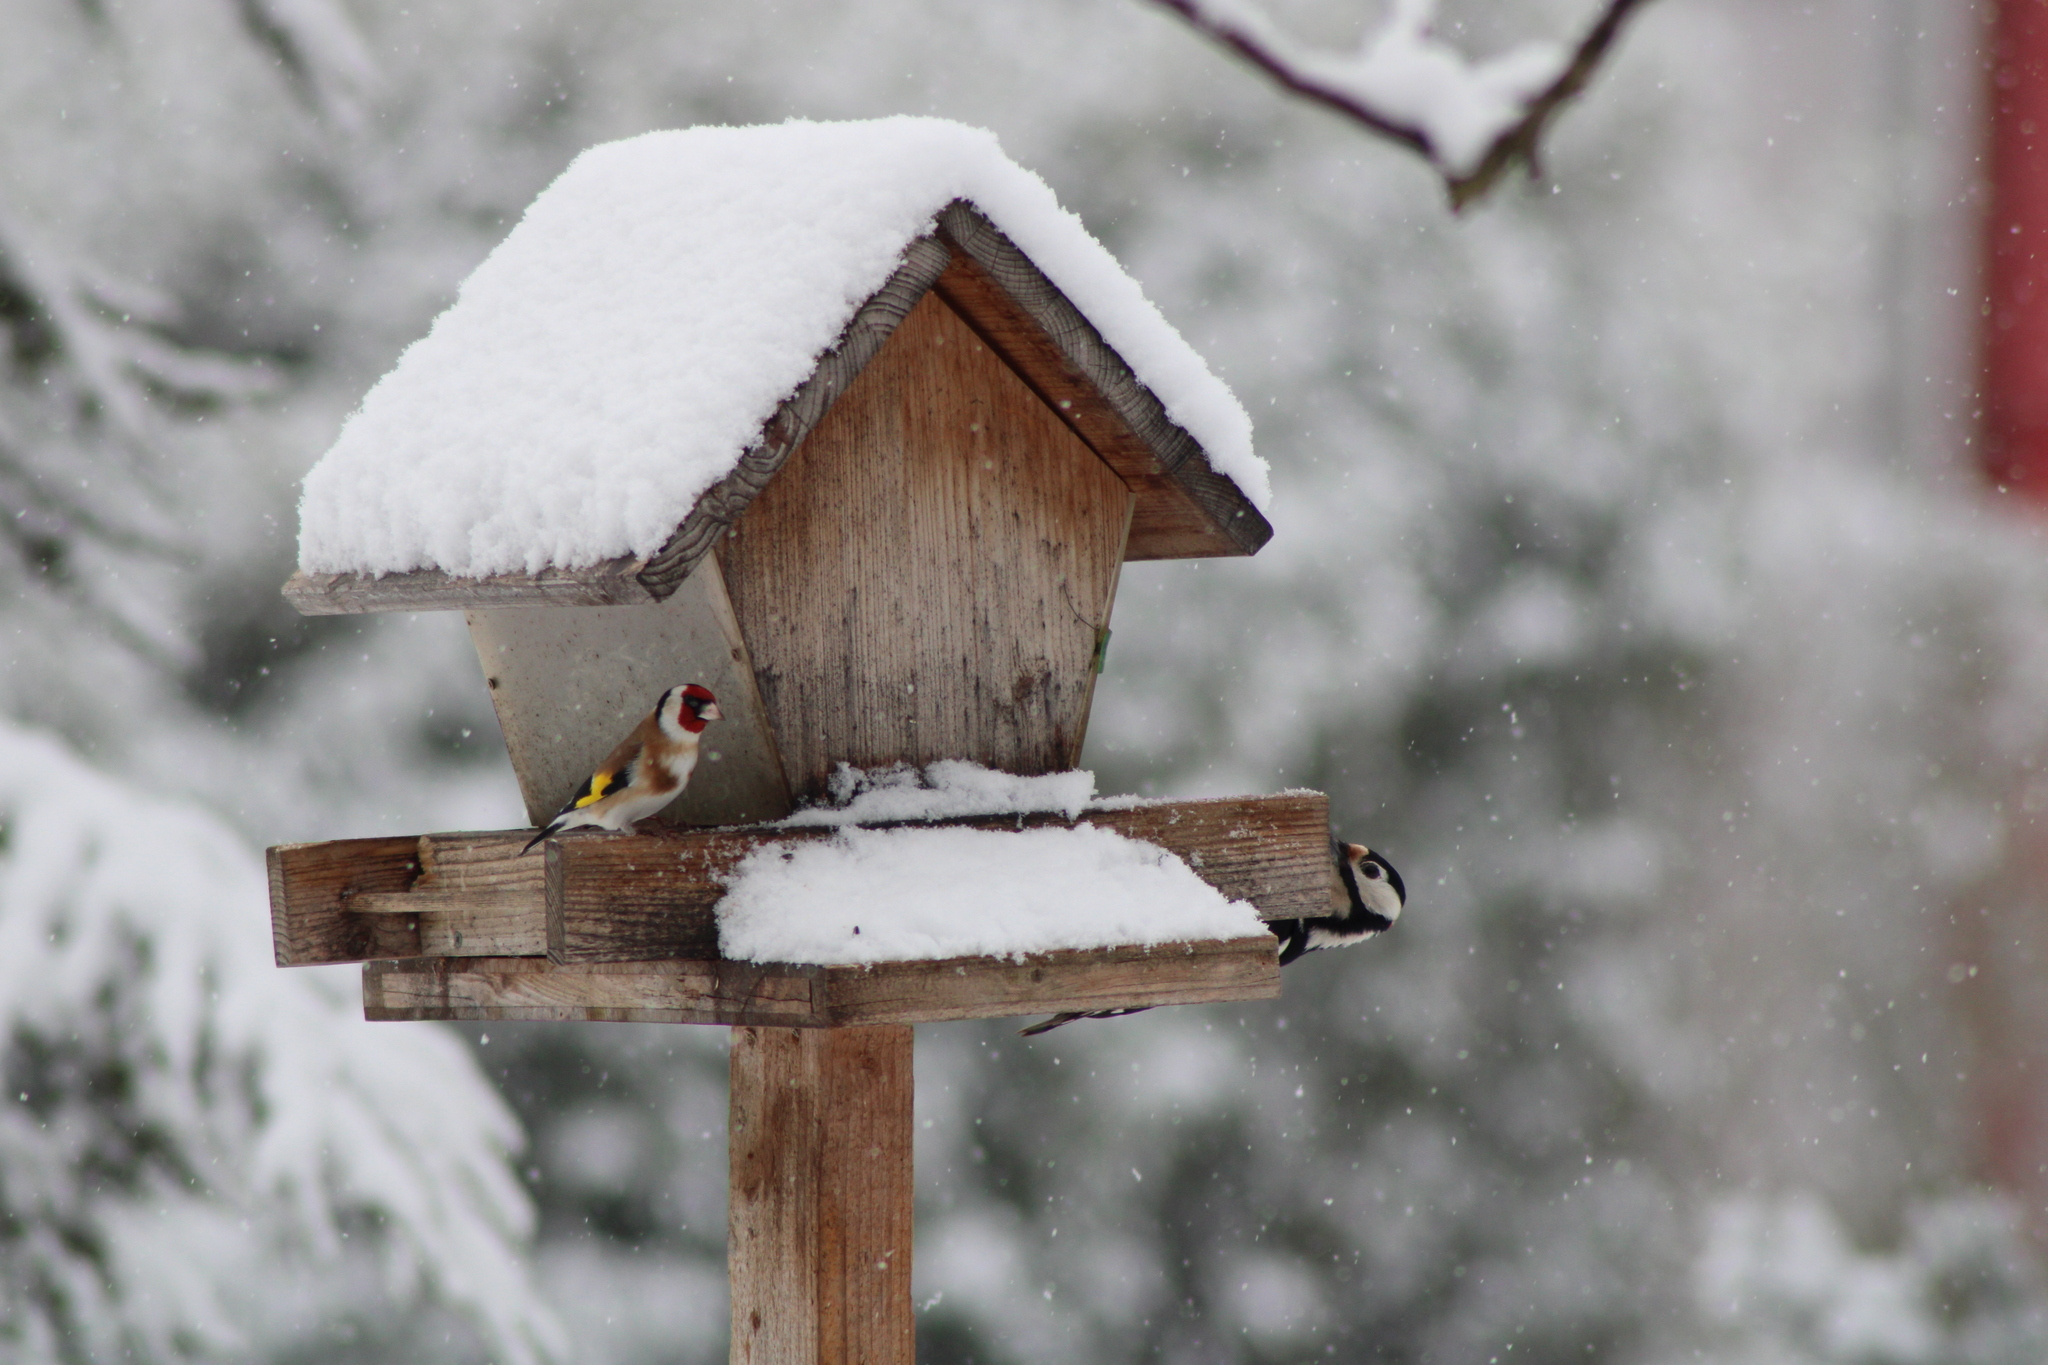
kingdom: Animalia
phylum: Chordata
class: Aves
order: Passeriformes
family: Fringillidae
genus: Carduelis
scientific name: Carduelis carduelis
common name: European goldfinch
